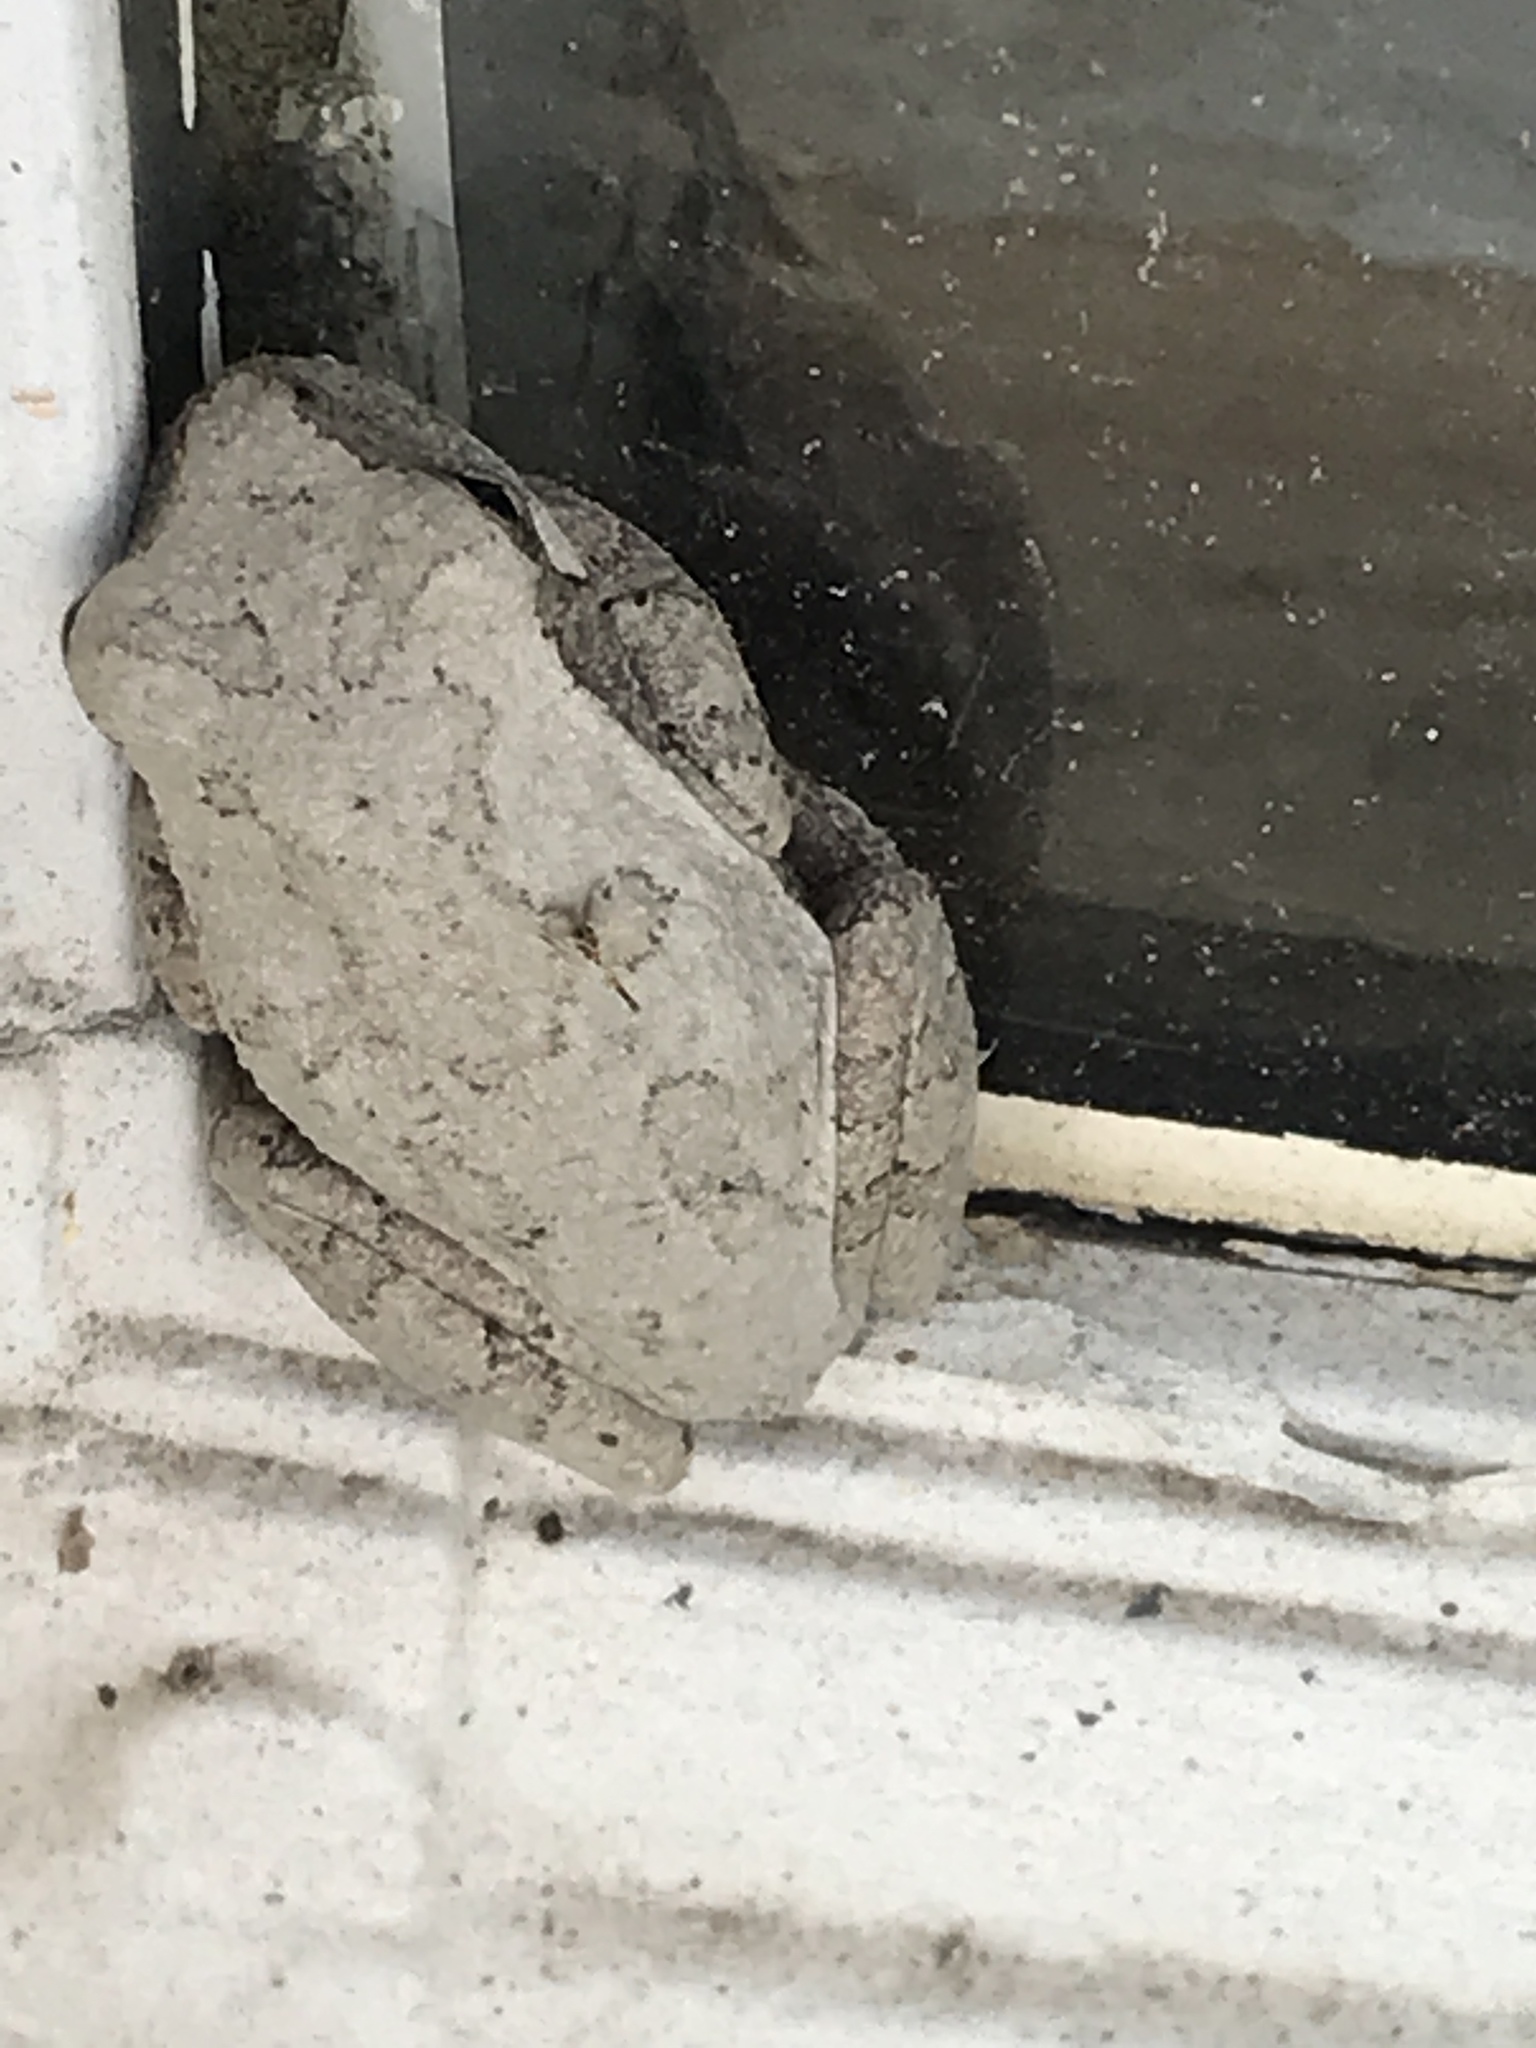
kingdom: Animalia
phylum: Chordata
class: Amphibia
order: Anura
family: Hylidae
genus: Hyla
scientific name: Hyla
